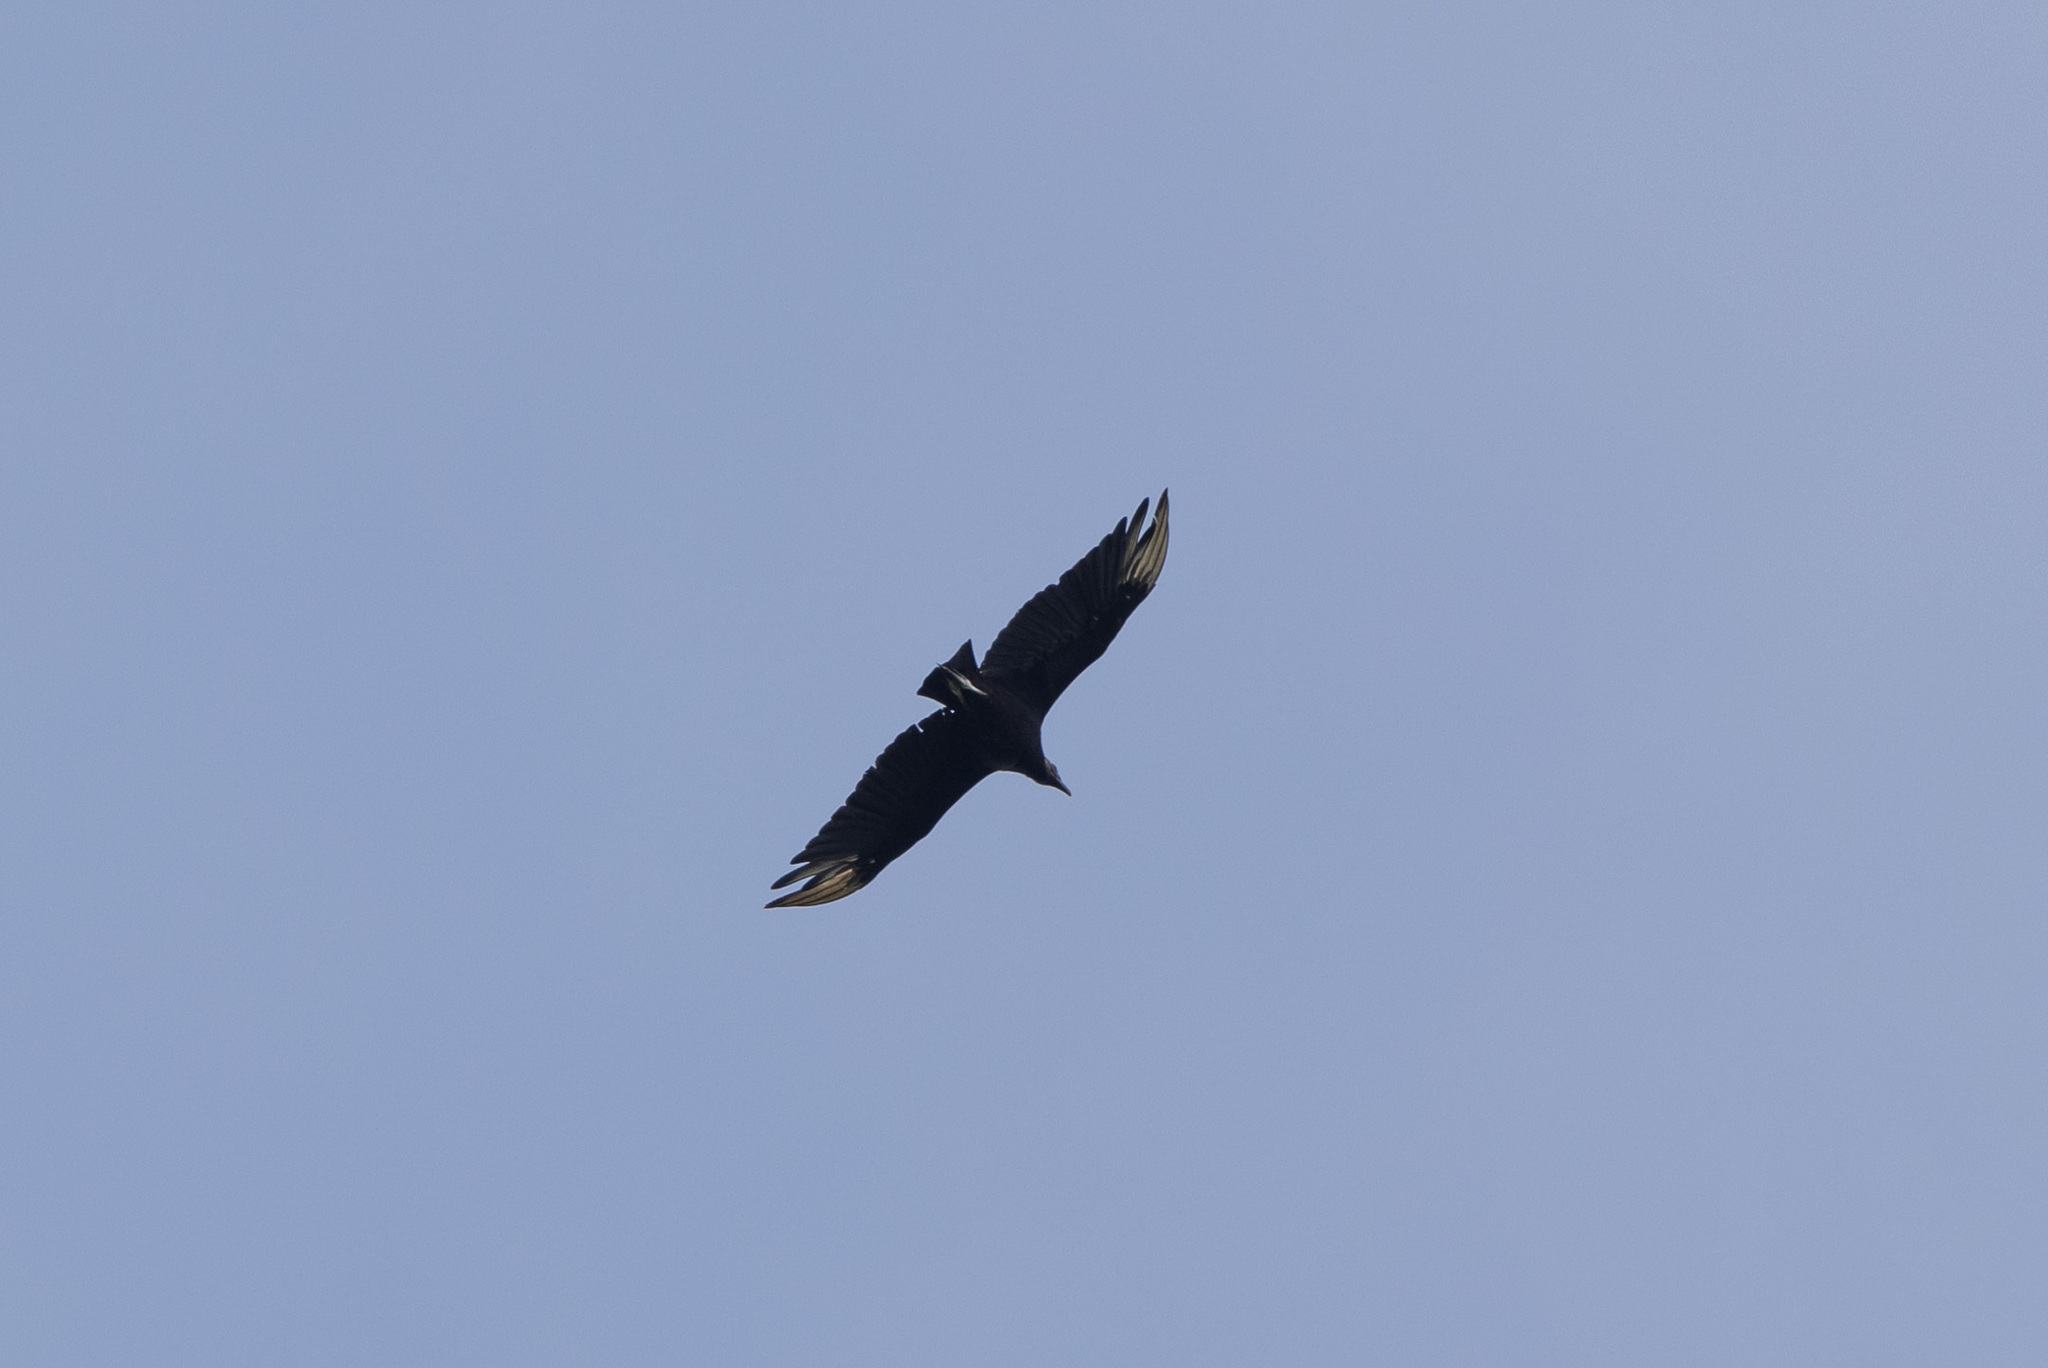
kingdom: Animalia
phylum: Chordata
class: Aves
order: Accipitriformes
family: Cathartidae
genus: Coragyps
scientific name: Coragyps atratus
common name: Black vulture
